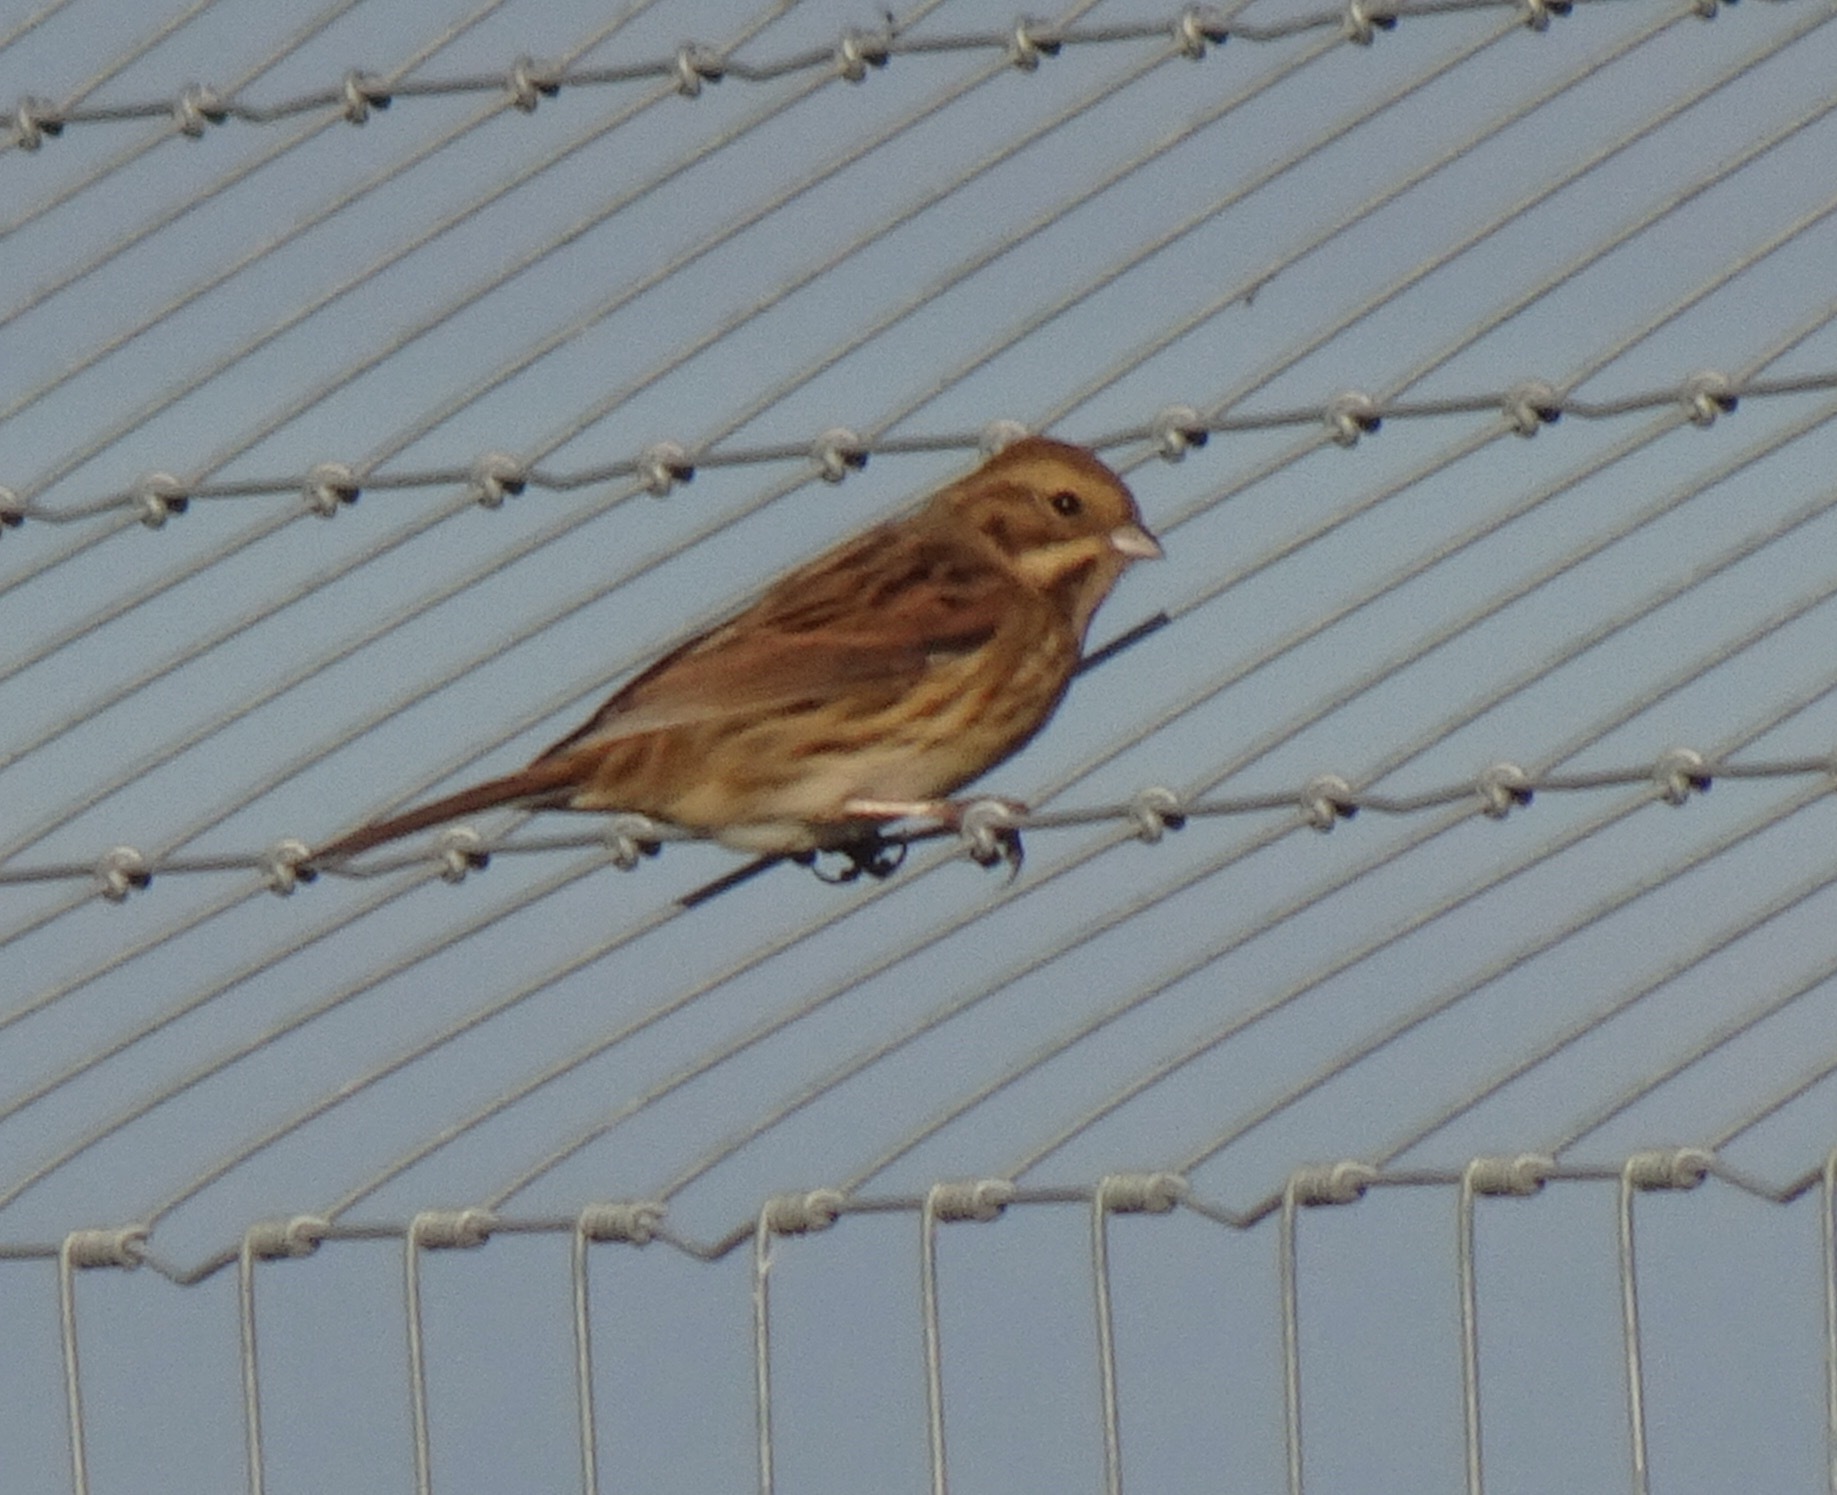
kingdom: Animalia
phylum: Chordata
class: Aves
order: Passeriformes
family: Emberizidae
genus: Emberiza
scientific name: Emberiza schoeniclus
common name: Reed bunting
